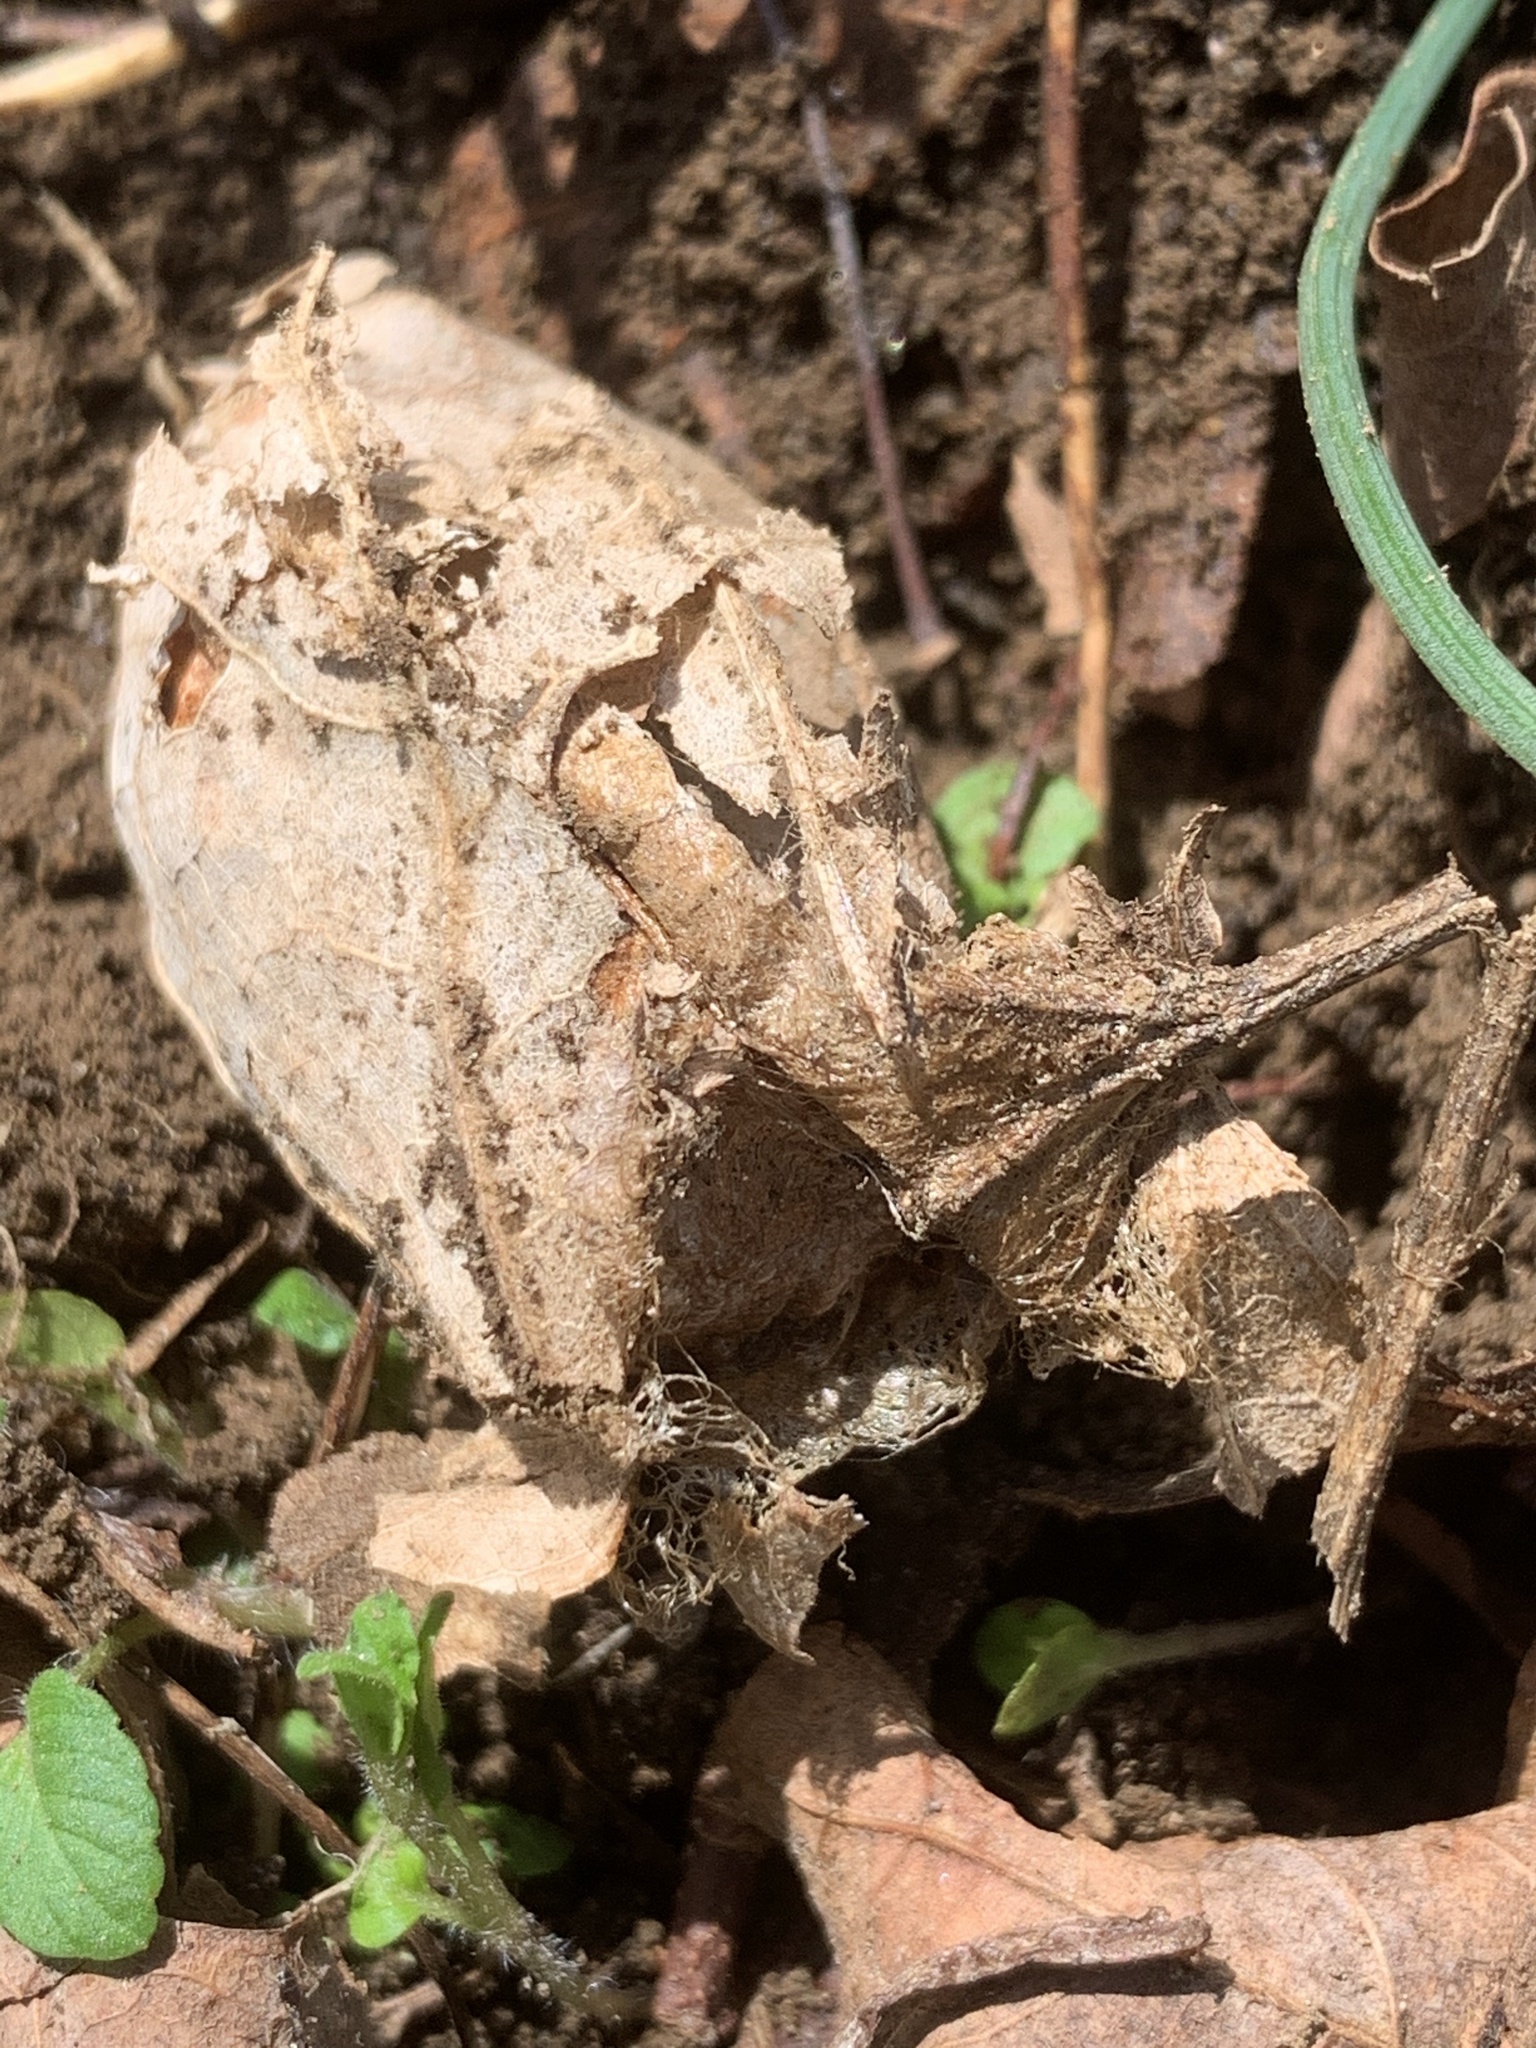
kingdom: Animalia
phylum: Arthropoda
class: Insecta
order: Lepidoptera
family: Saturniidae
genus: Antheraea
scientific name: Antheraea polyphemus
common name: Polyphemus moth
